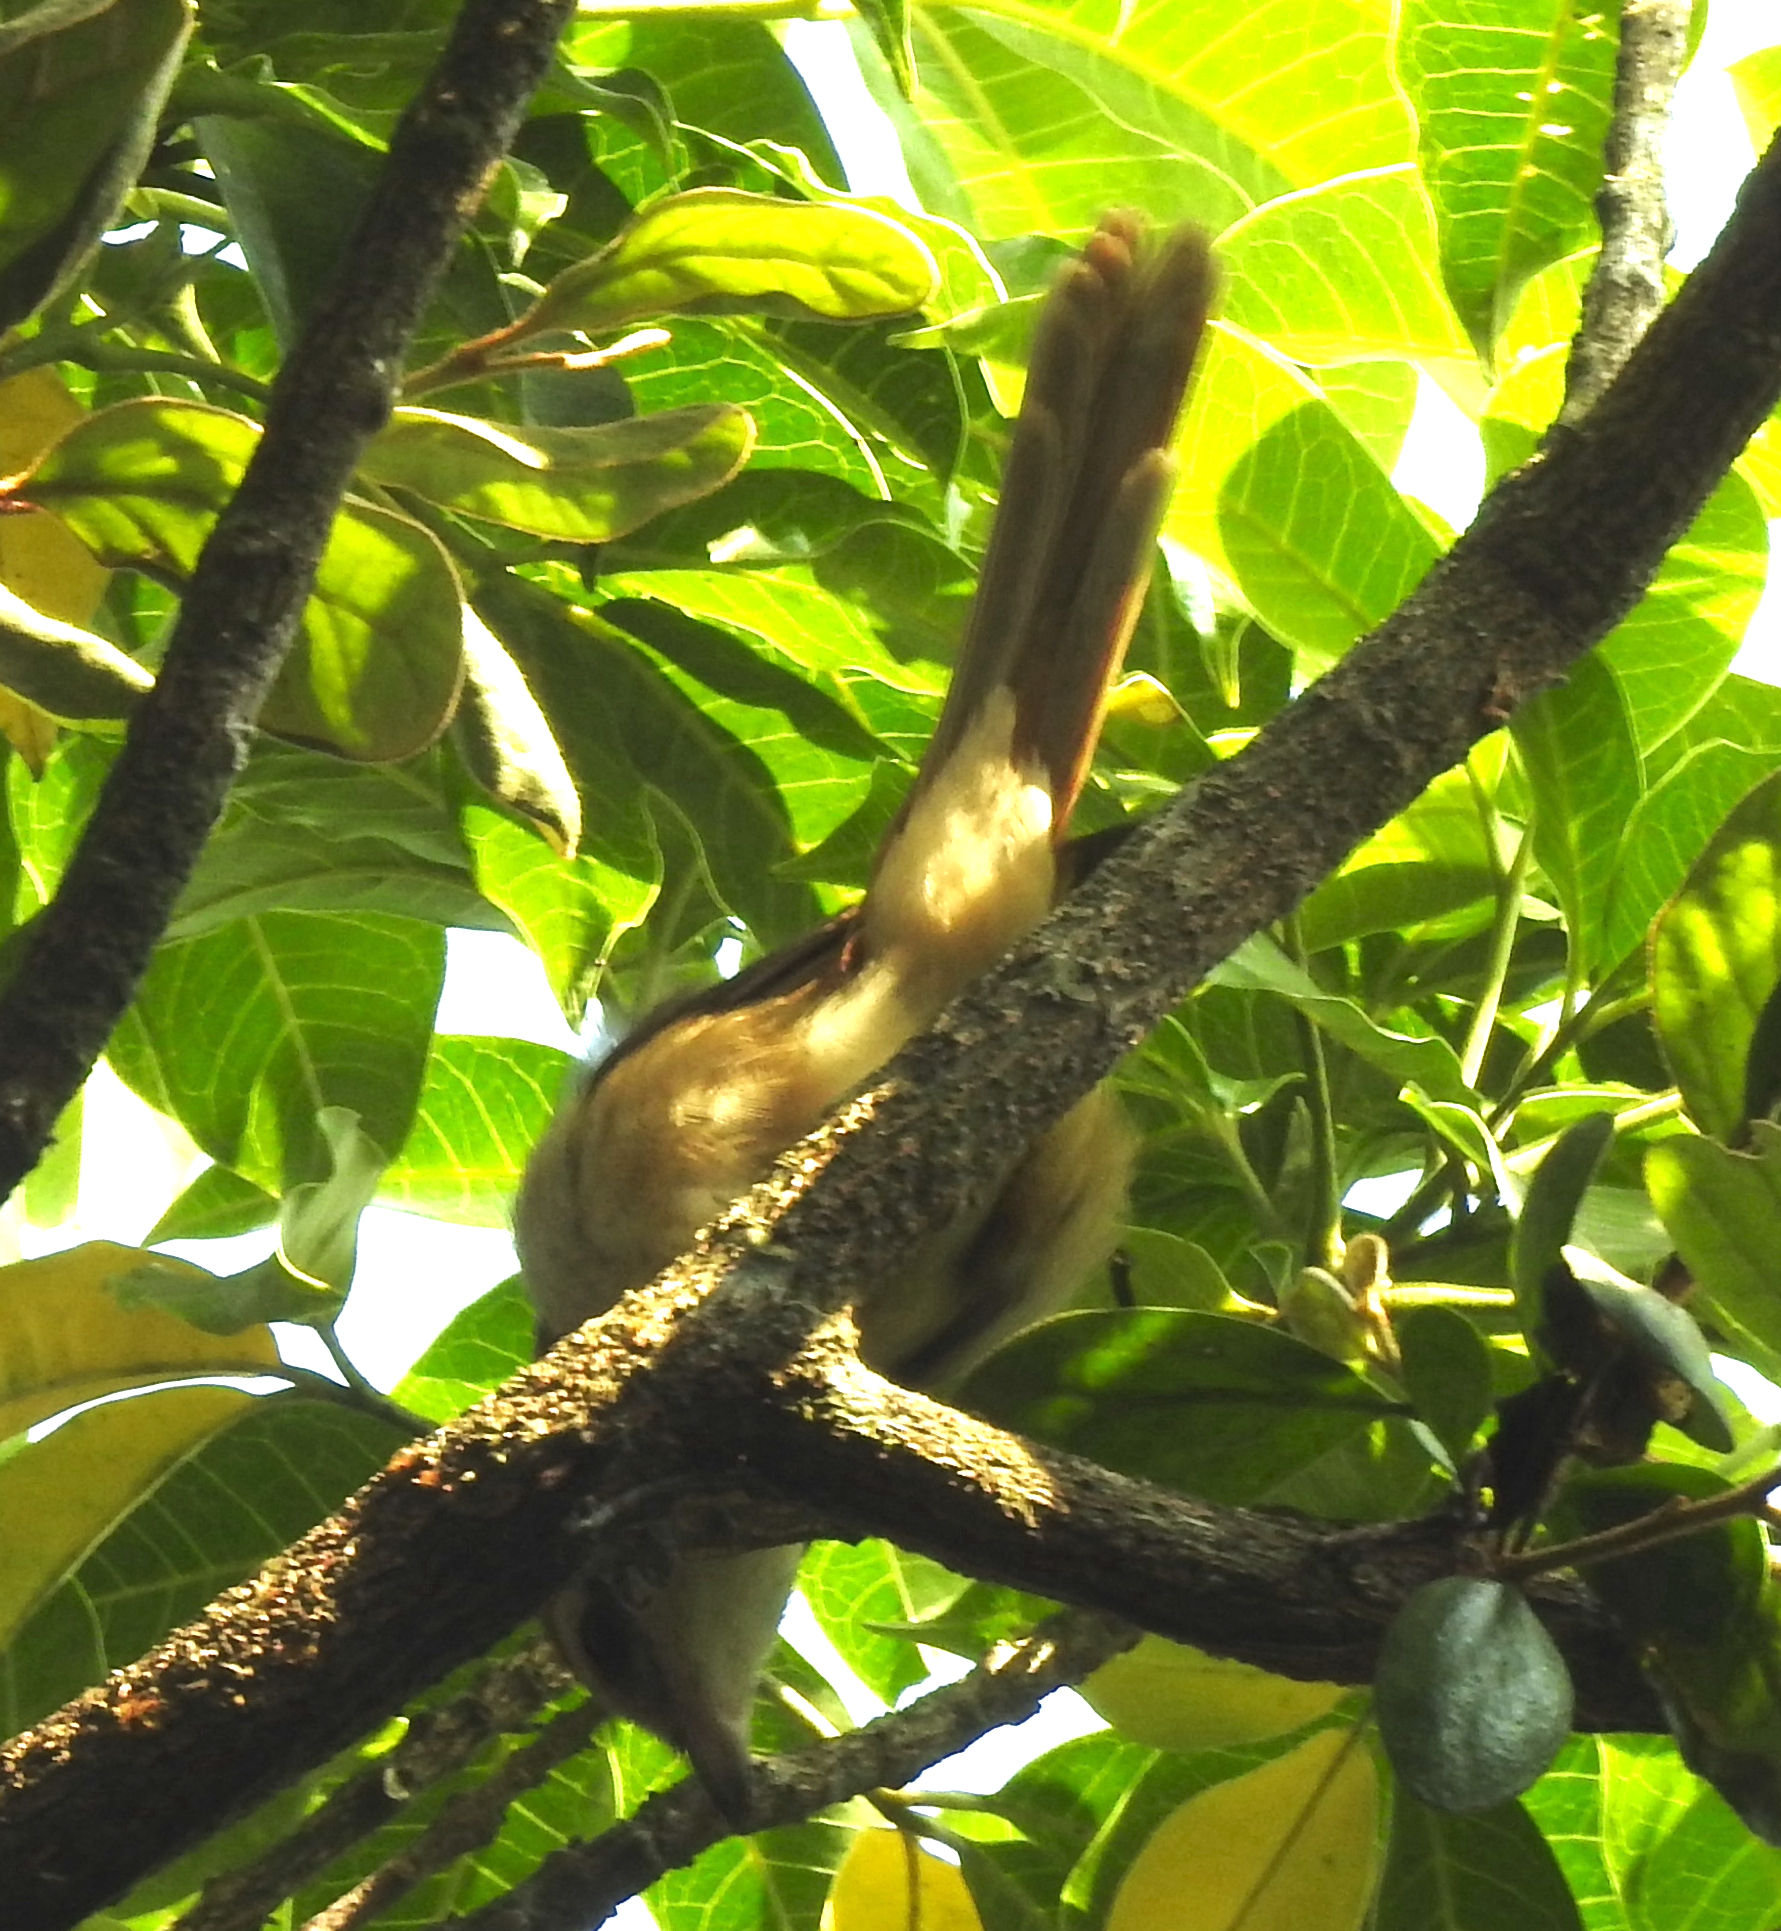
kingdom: Animalia
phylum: Chordata
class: Aves
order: Passeriformes
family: Laniidae
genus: Lanius
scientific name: Lanius cristatus
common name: Brown shrike
